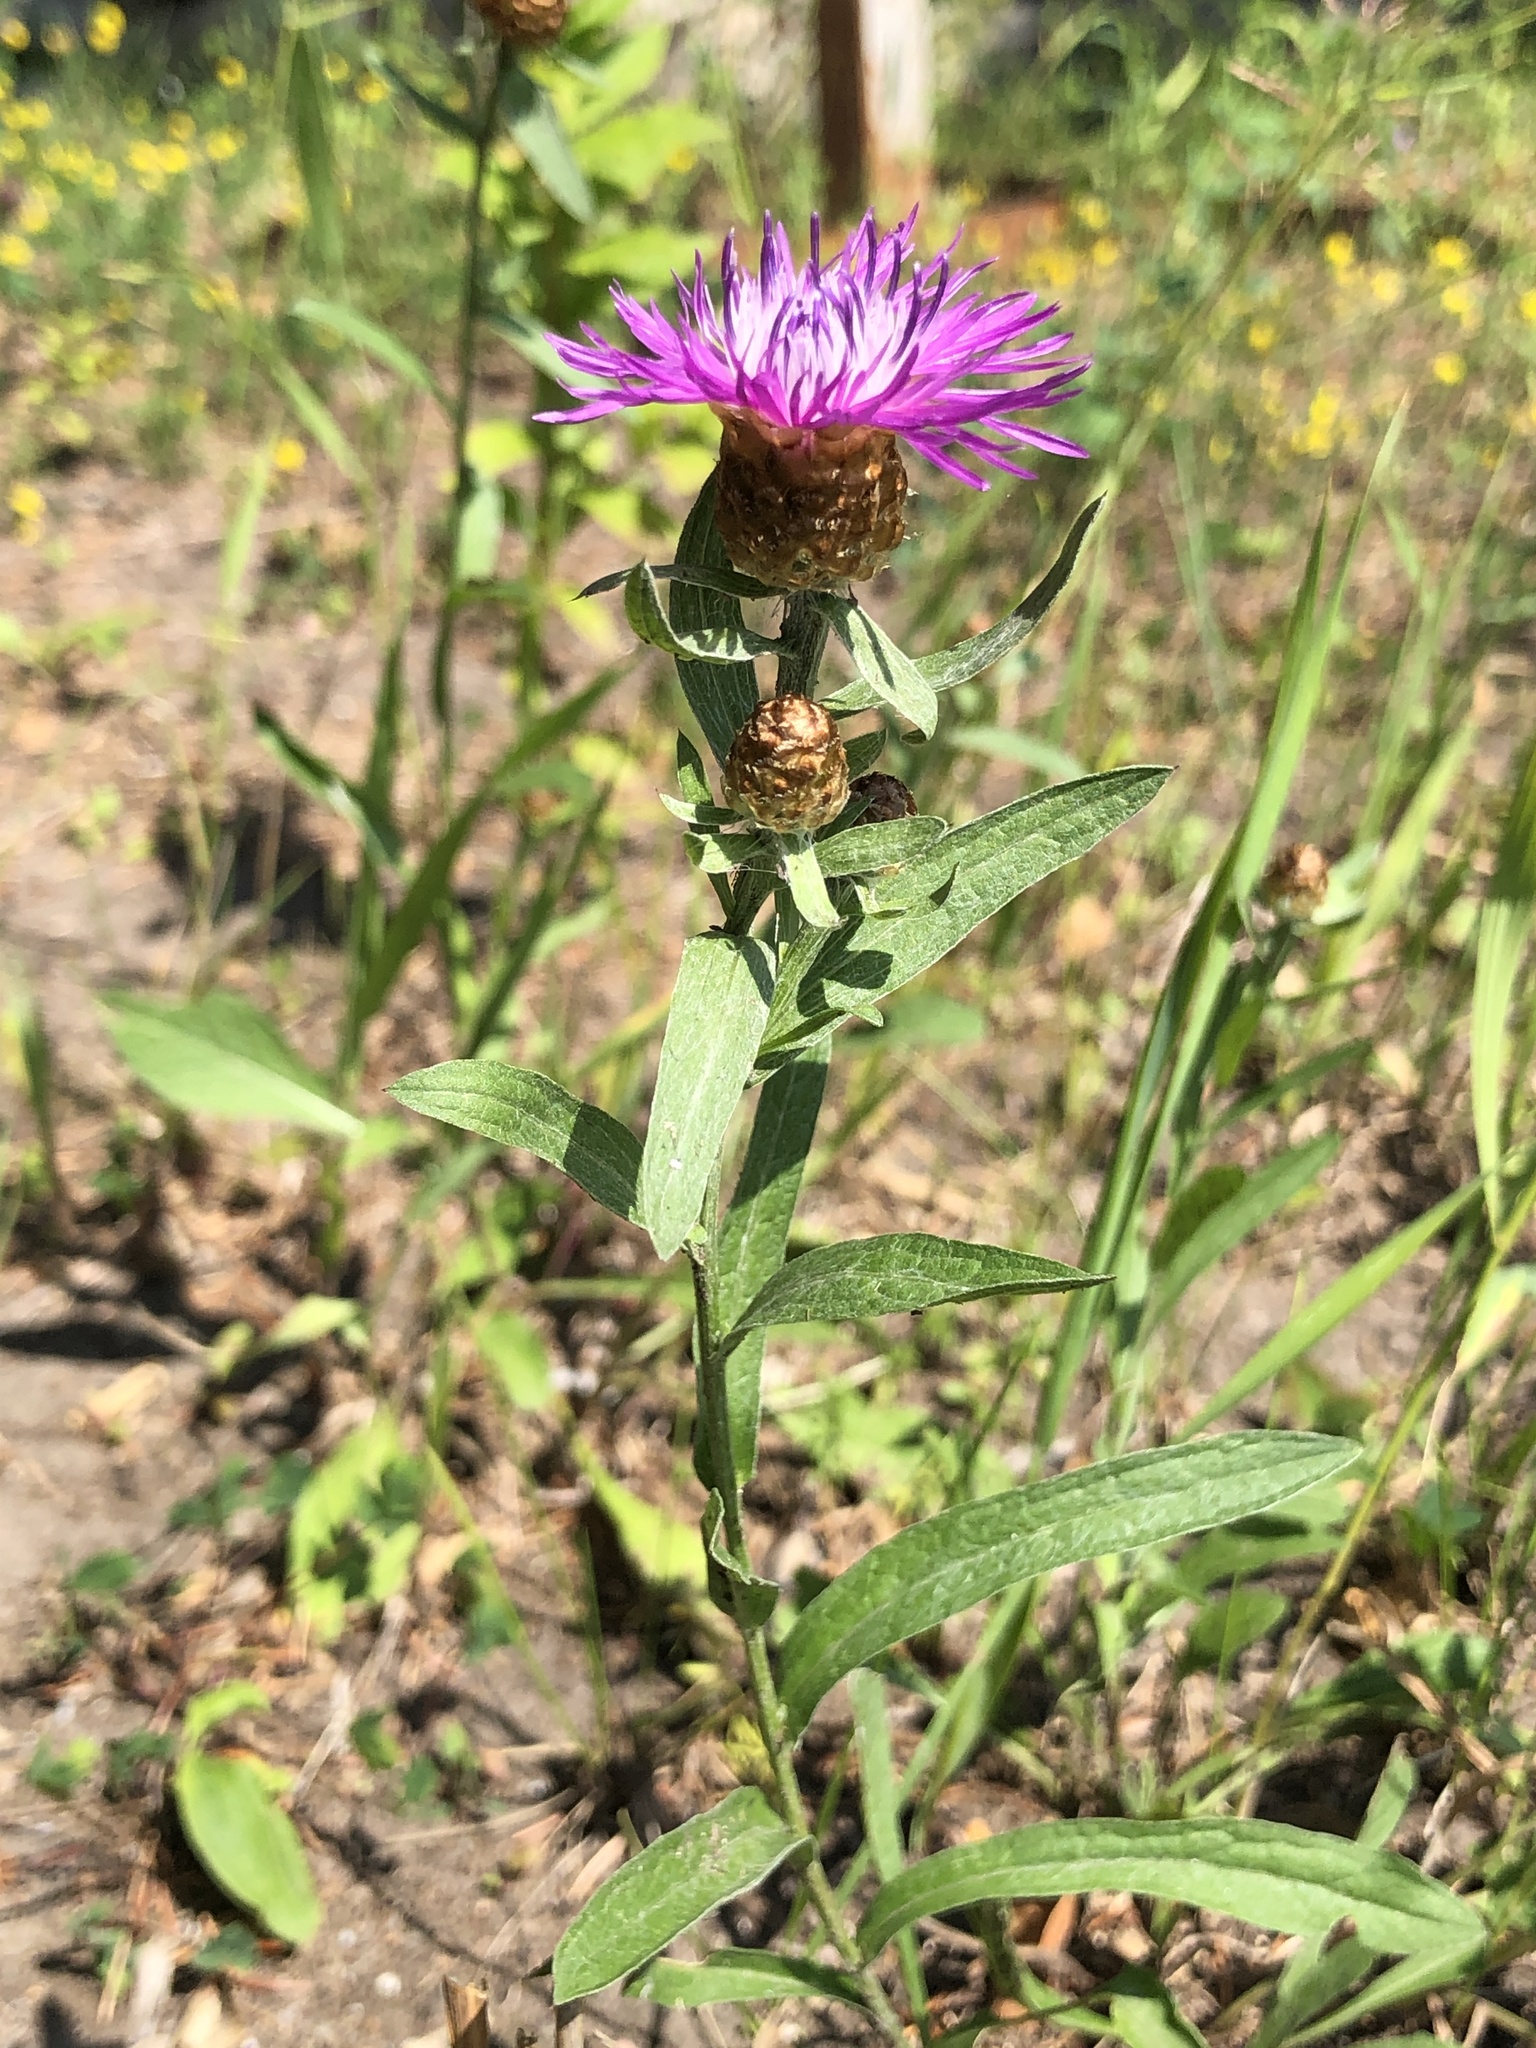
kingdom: Plantae
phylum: Tracheophyta
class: Magnoliopsida
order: Asterales
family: Asteraceae
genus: Centaurea
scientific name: Centaurea jacea
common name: Brown knapweed
